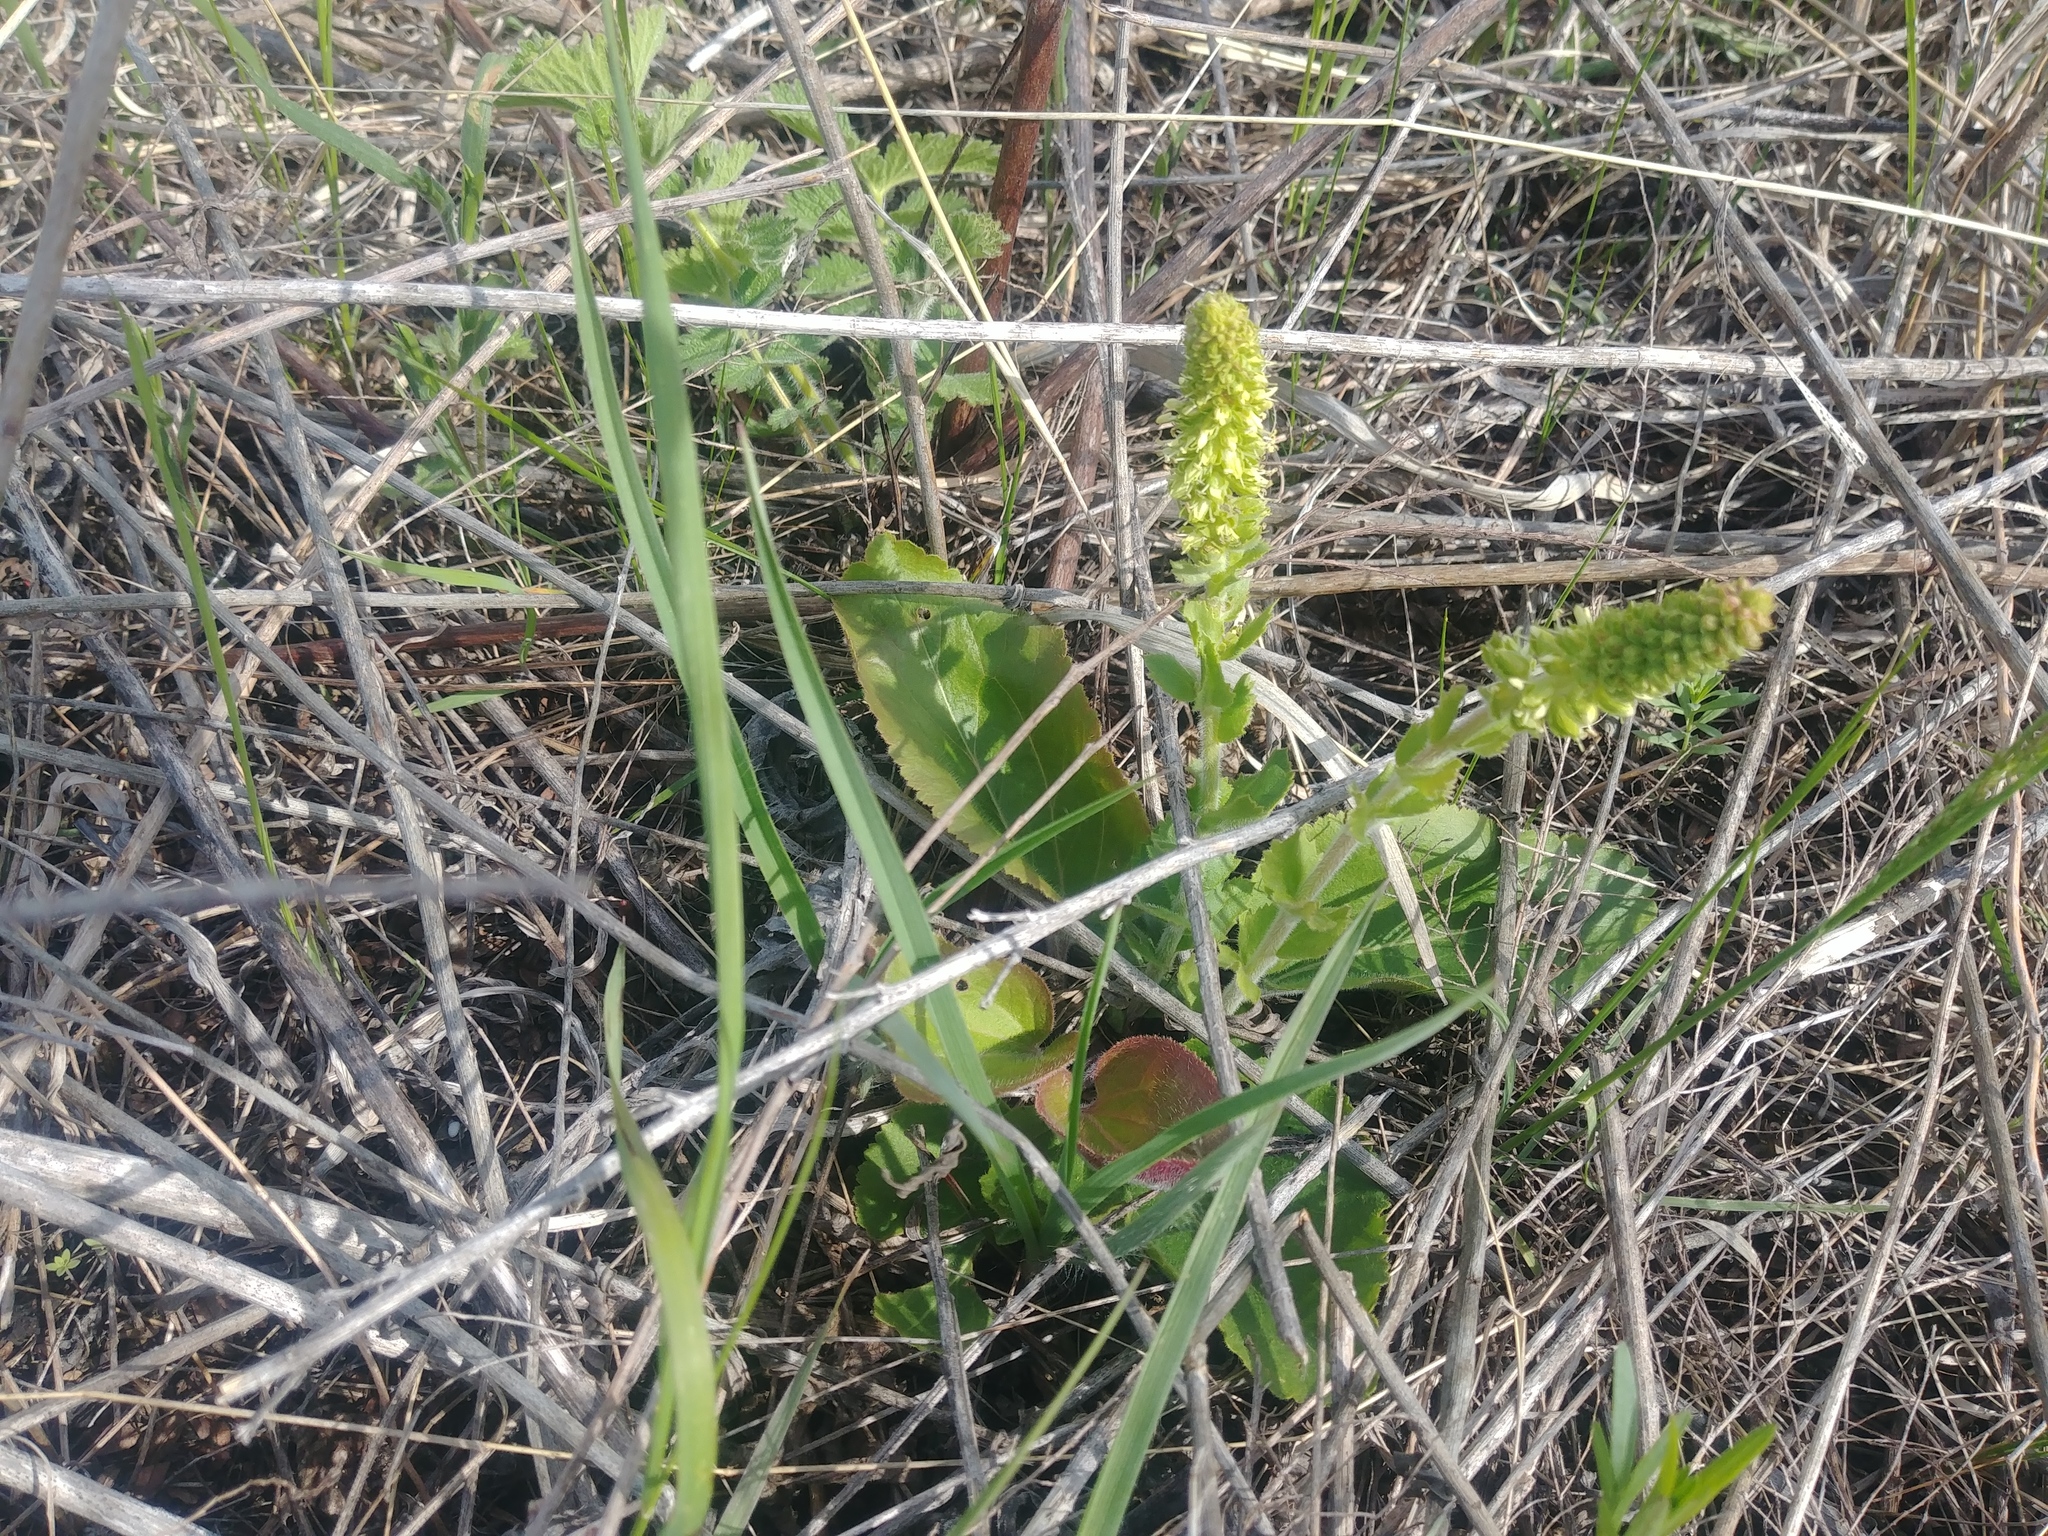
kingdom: Plantae
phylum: Tracheophyta
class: Magnoliopsida
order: Lamiales
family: Plantaginaceae
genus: Synthyris
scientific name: Synthyris bullii
